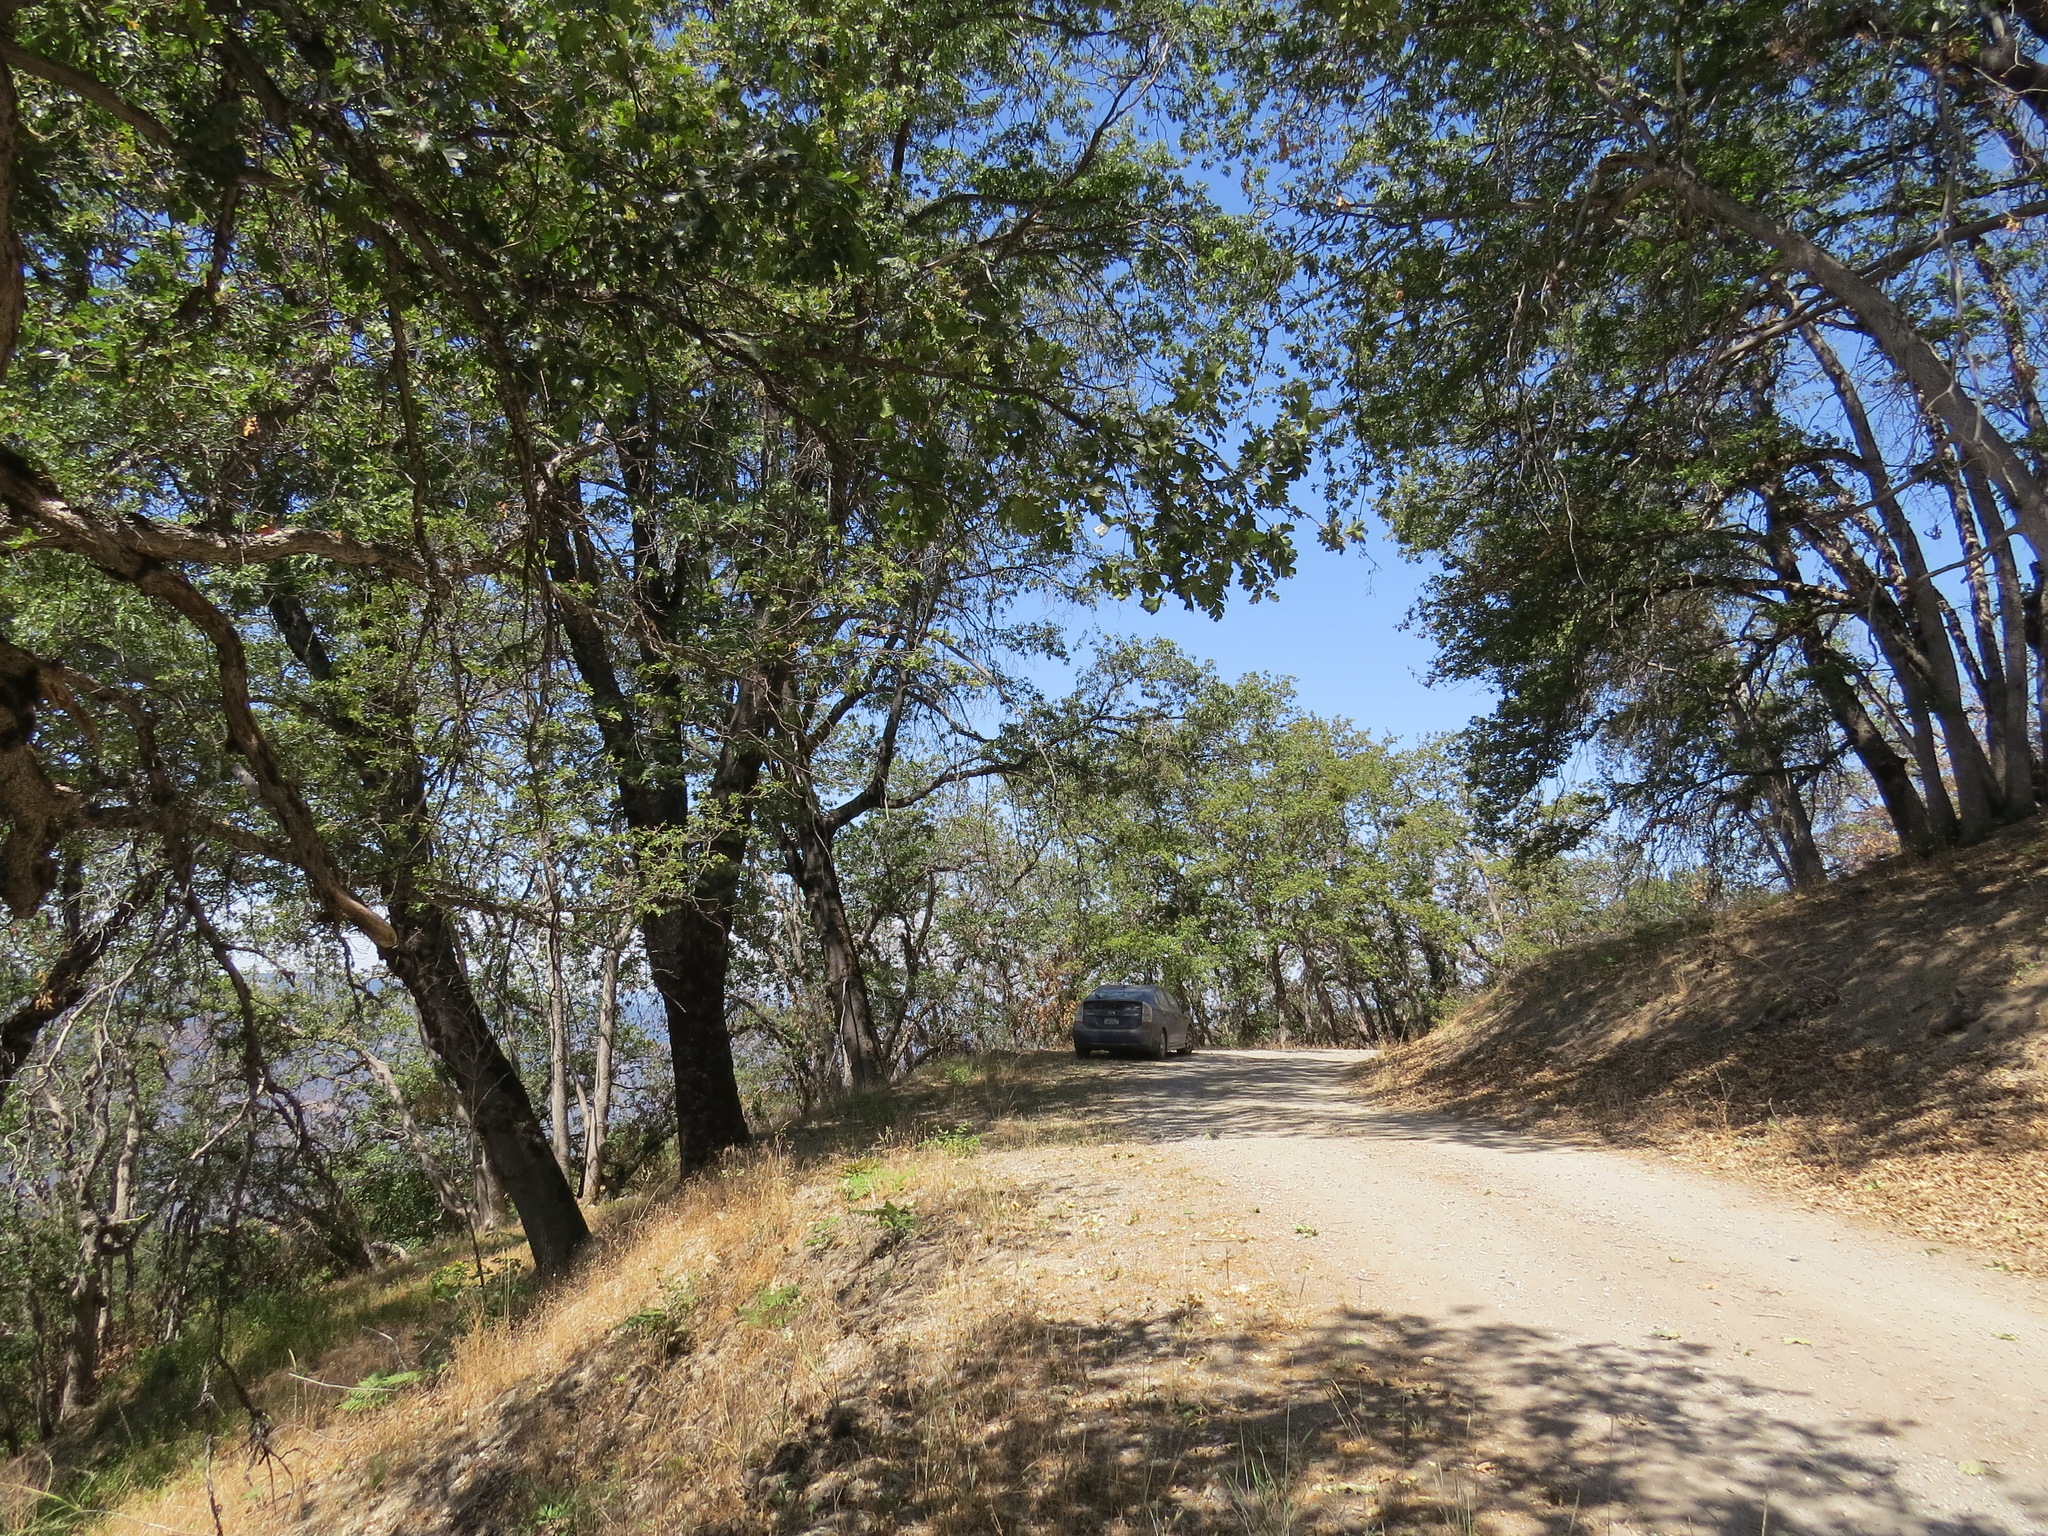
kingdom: Plantae
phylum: Tracheophyta
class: Magnoliopsida
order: Fagales
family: Fagaceae
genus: Quercus
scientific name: Quercus garryana
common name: Garry oak
